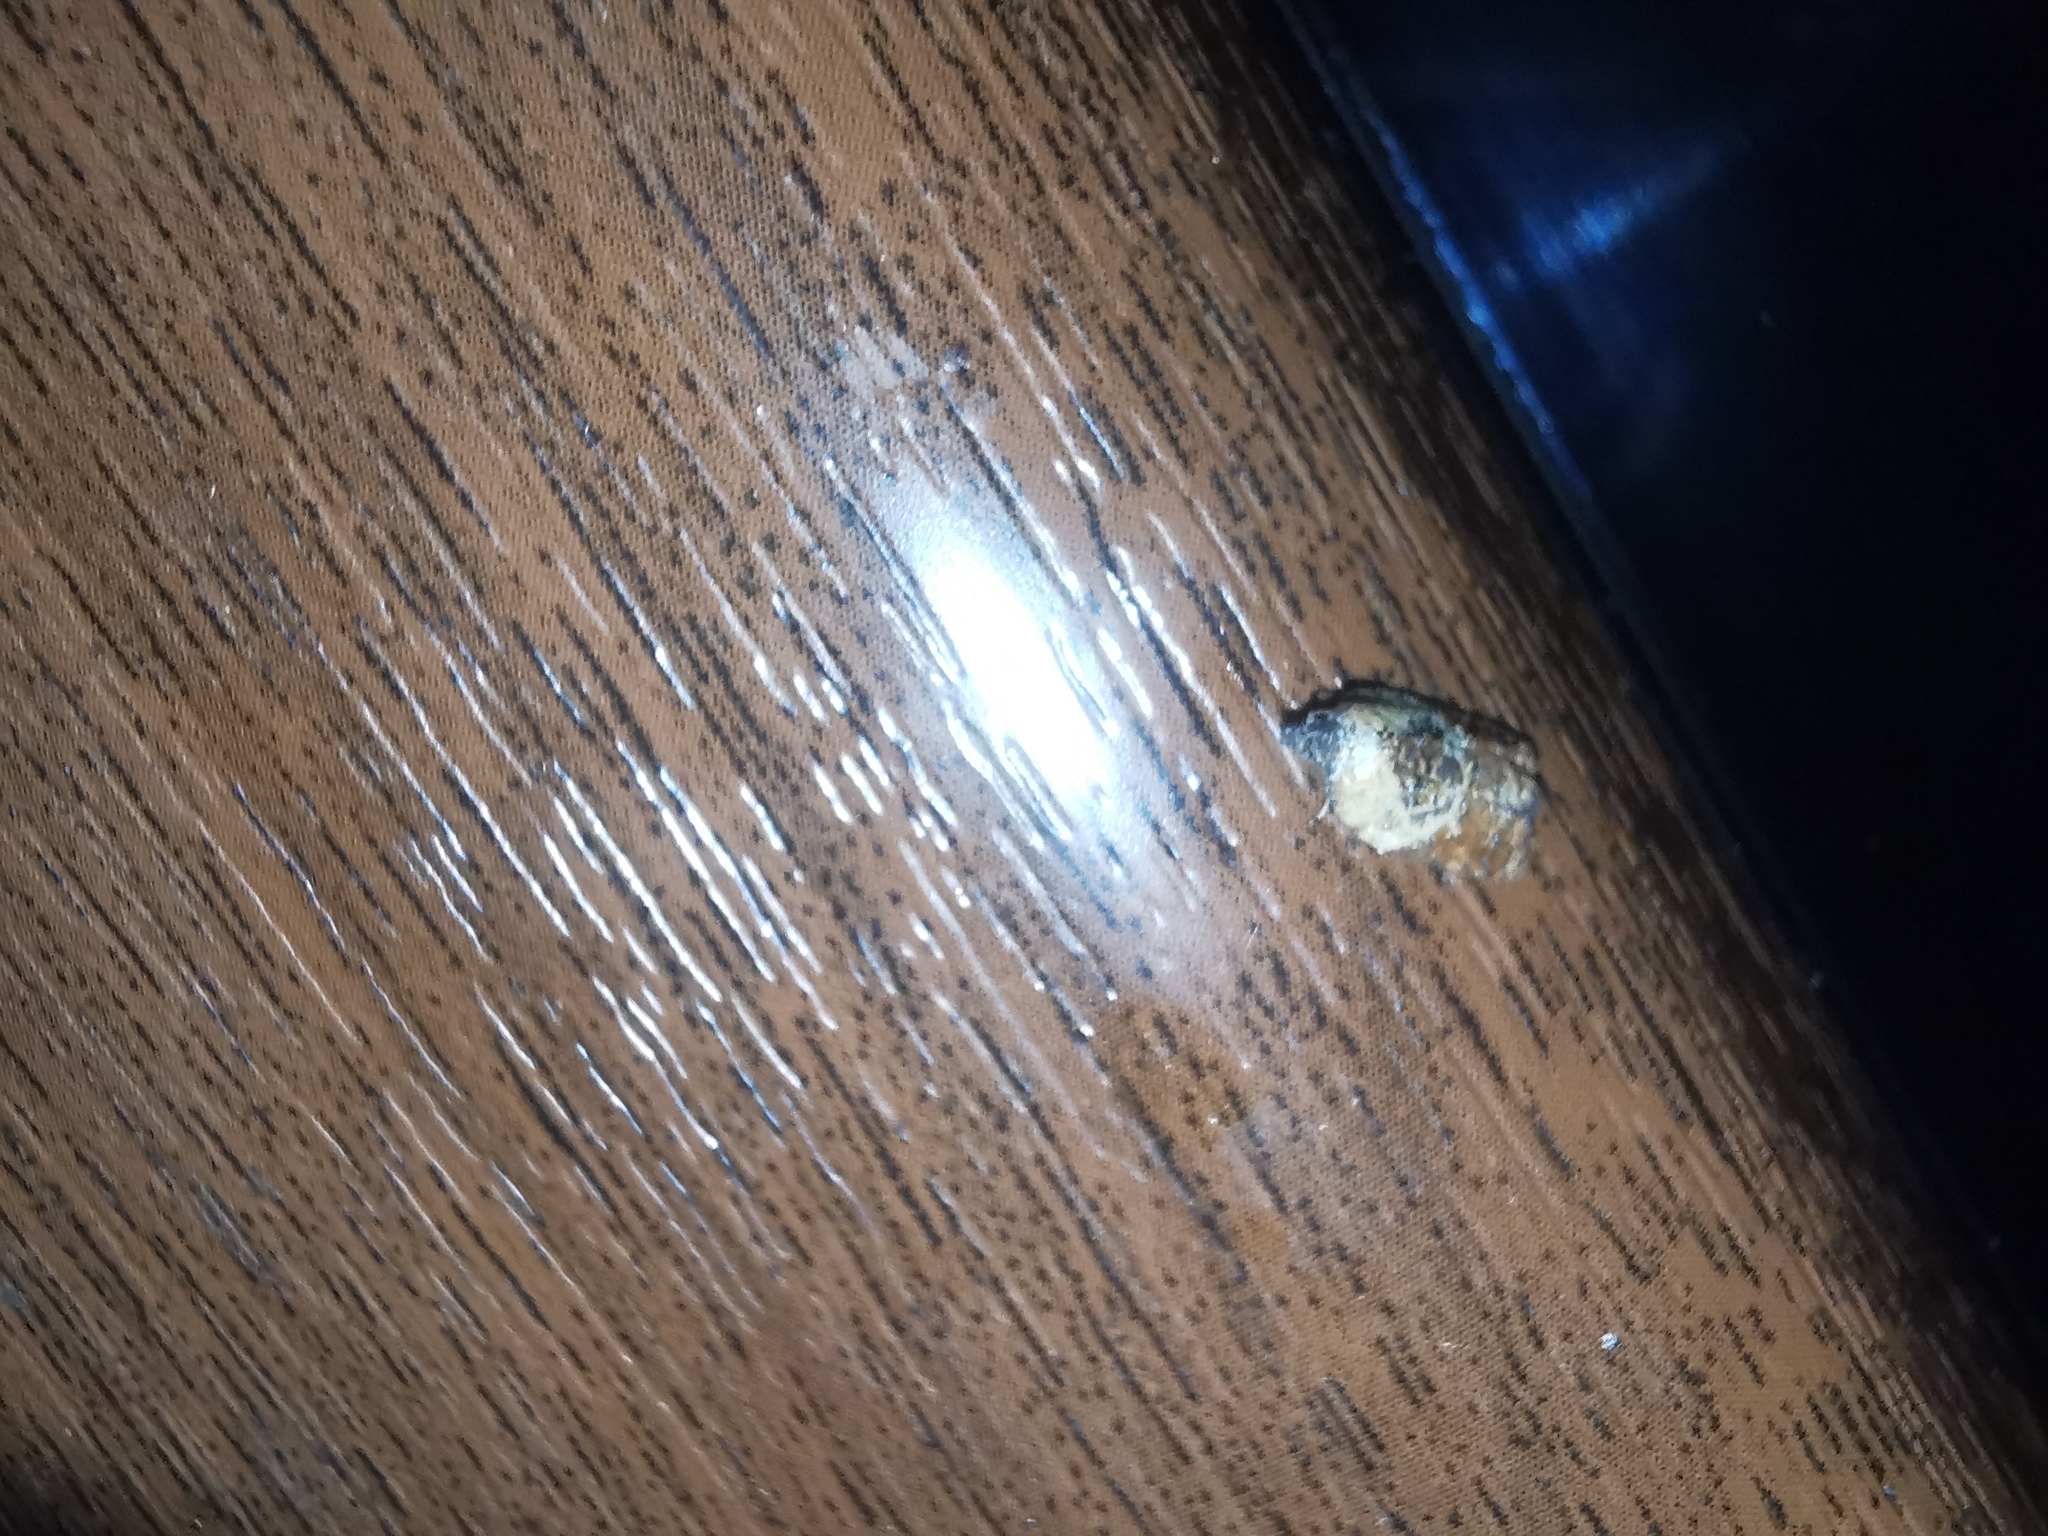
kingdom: Animalia
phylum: Arthropoda
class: Insecta
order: Lepidoptera
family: Tortricidae
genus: Acleris
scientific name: Acleris variegana
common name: Garden rose tortrix
